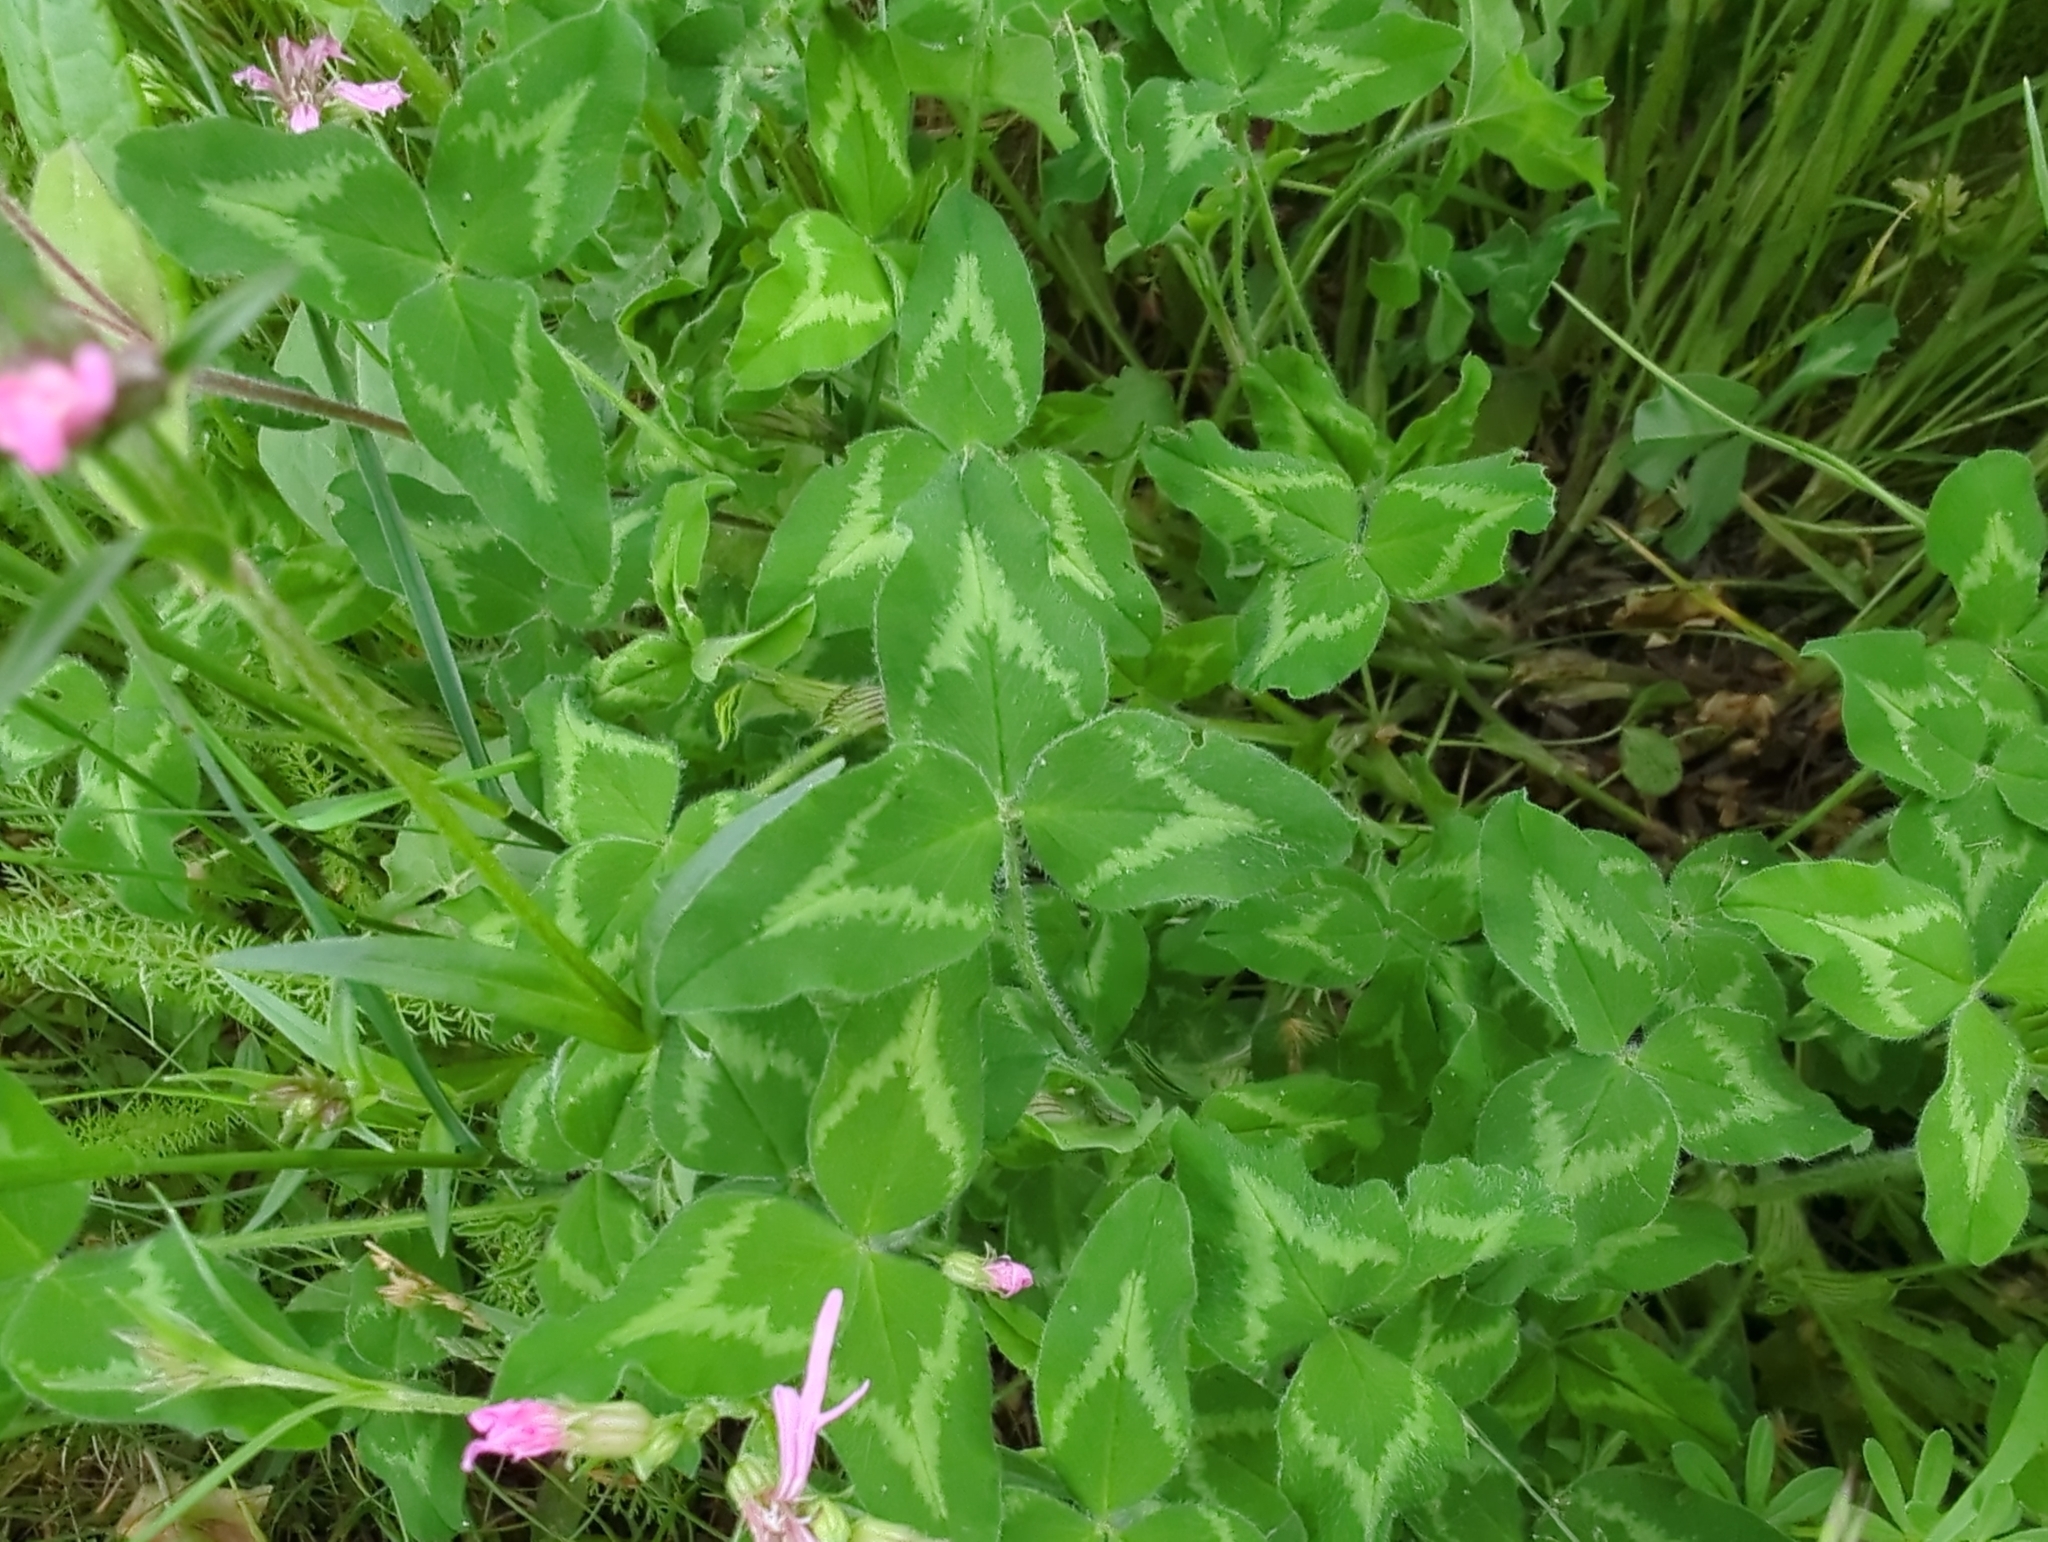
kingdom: Plantae
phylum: Tracheophyta
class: Magnoliopsida
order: Fabales
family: Fabaceae
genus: Trifolium
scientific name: Trifolium pratense
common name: Red clover
